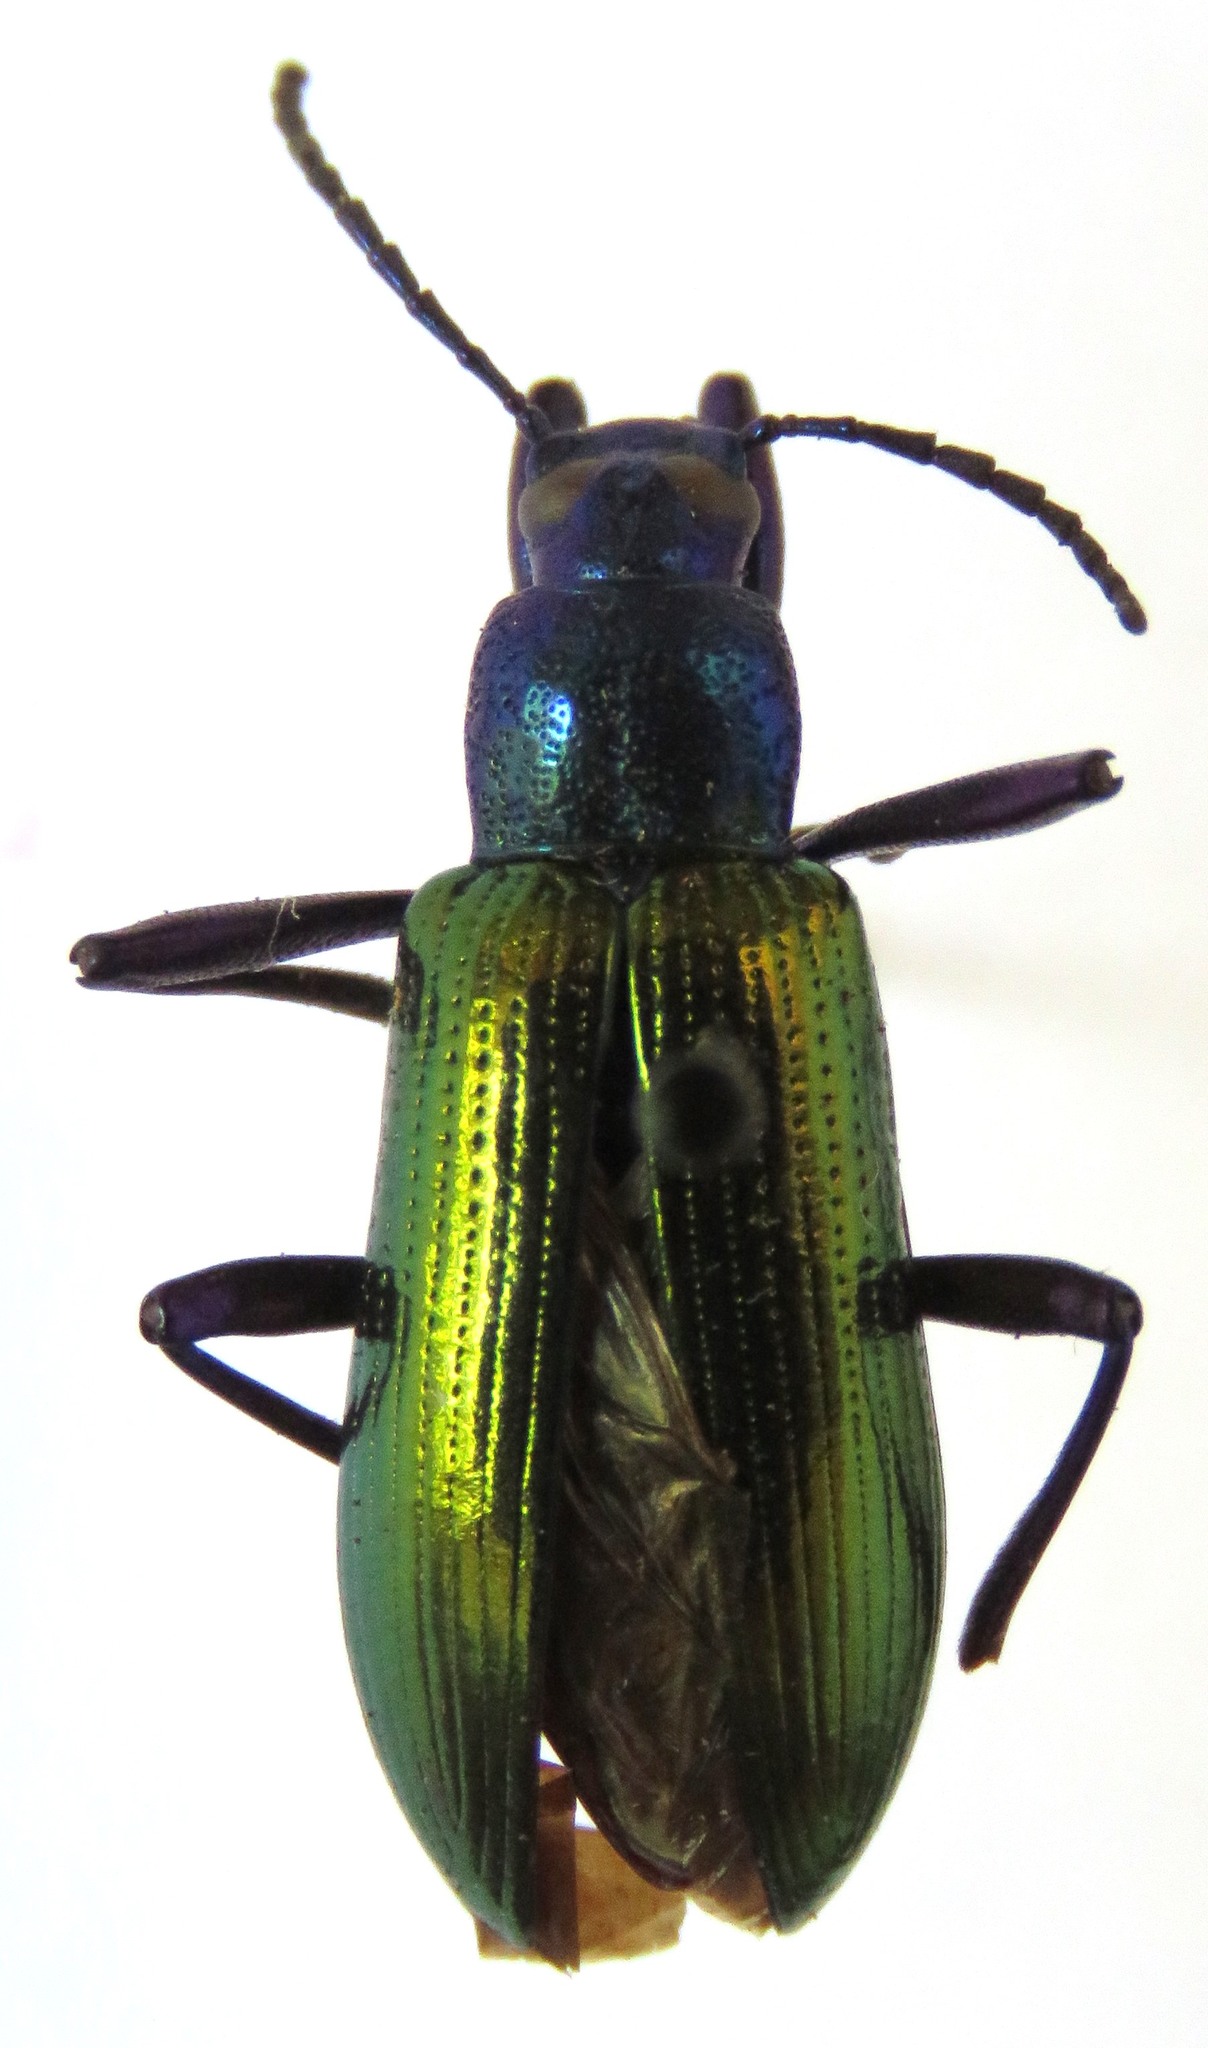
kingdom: Animalia
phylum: Arthropoda
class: Insecta
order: Coleoptera
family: Tenebrionidae
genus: Strongylium
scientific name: Strongylium
